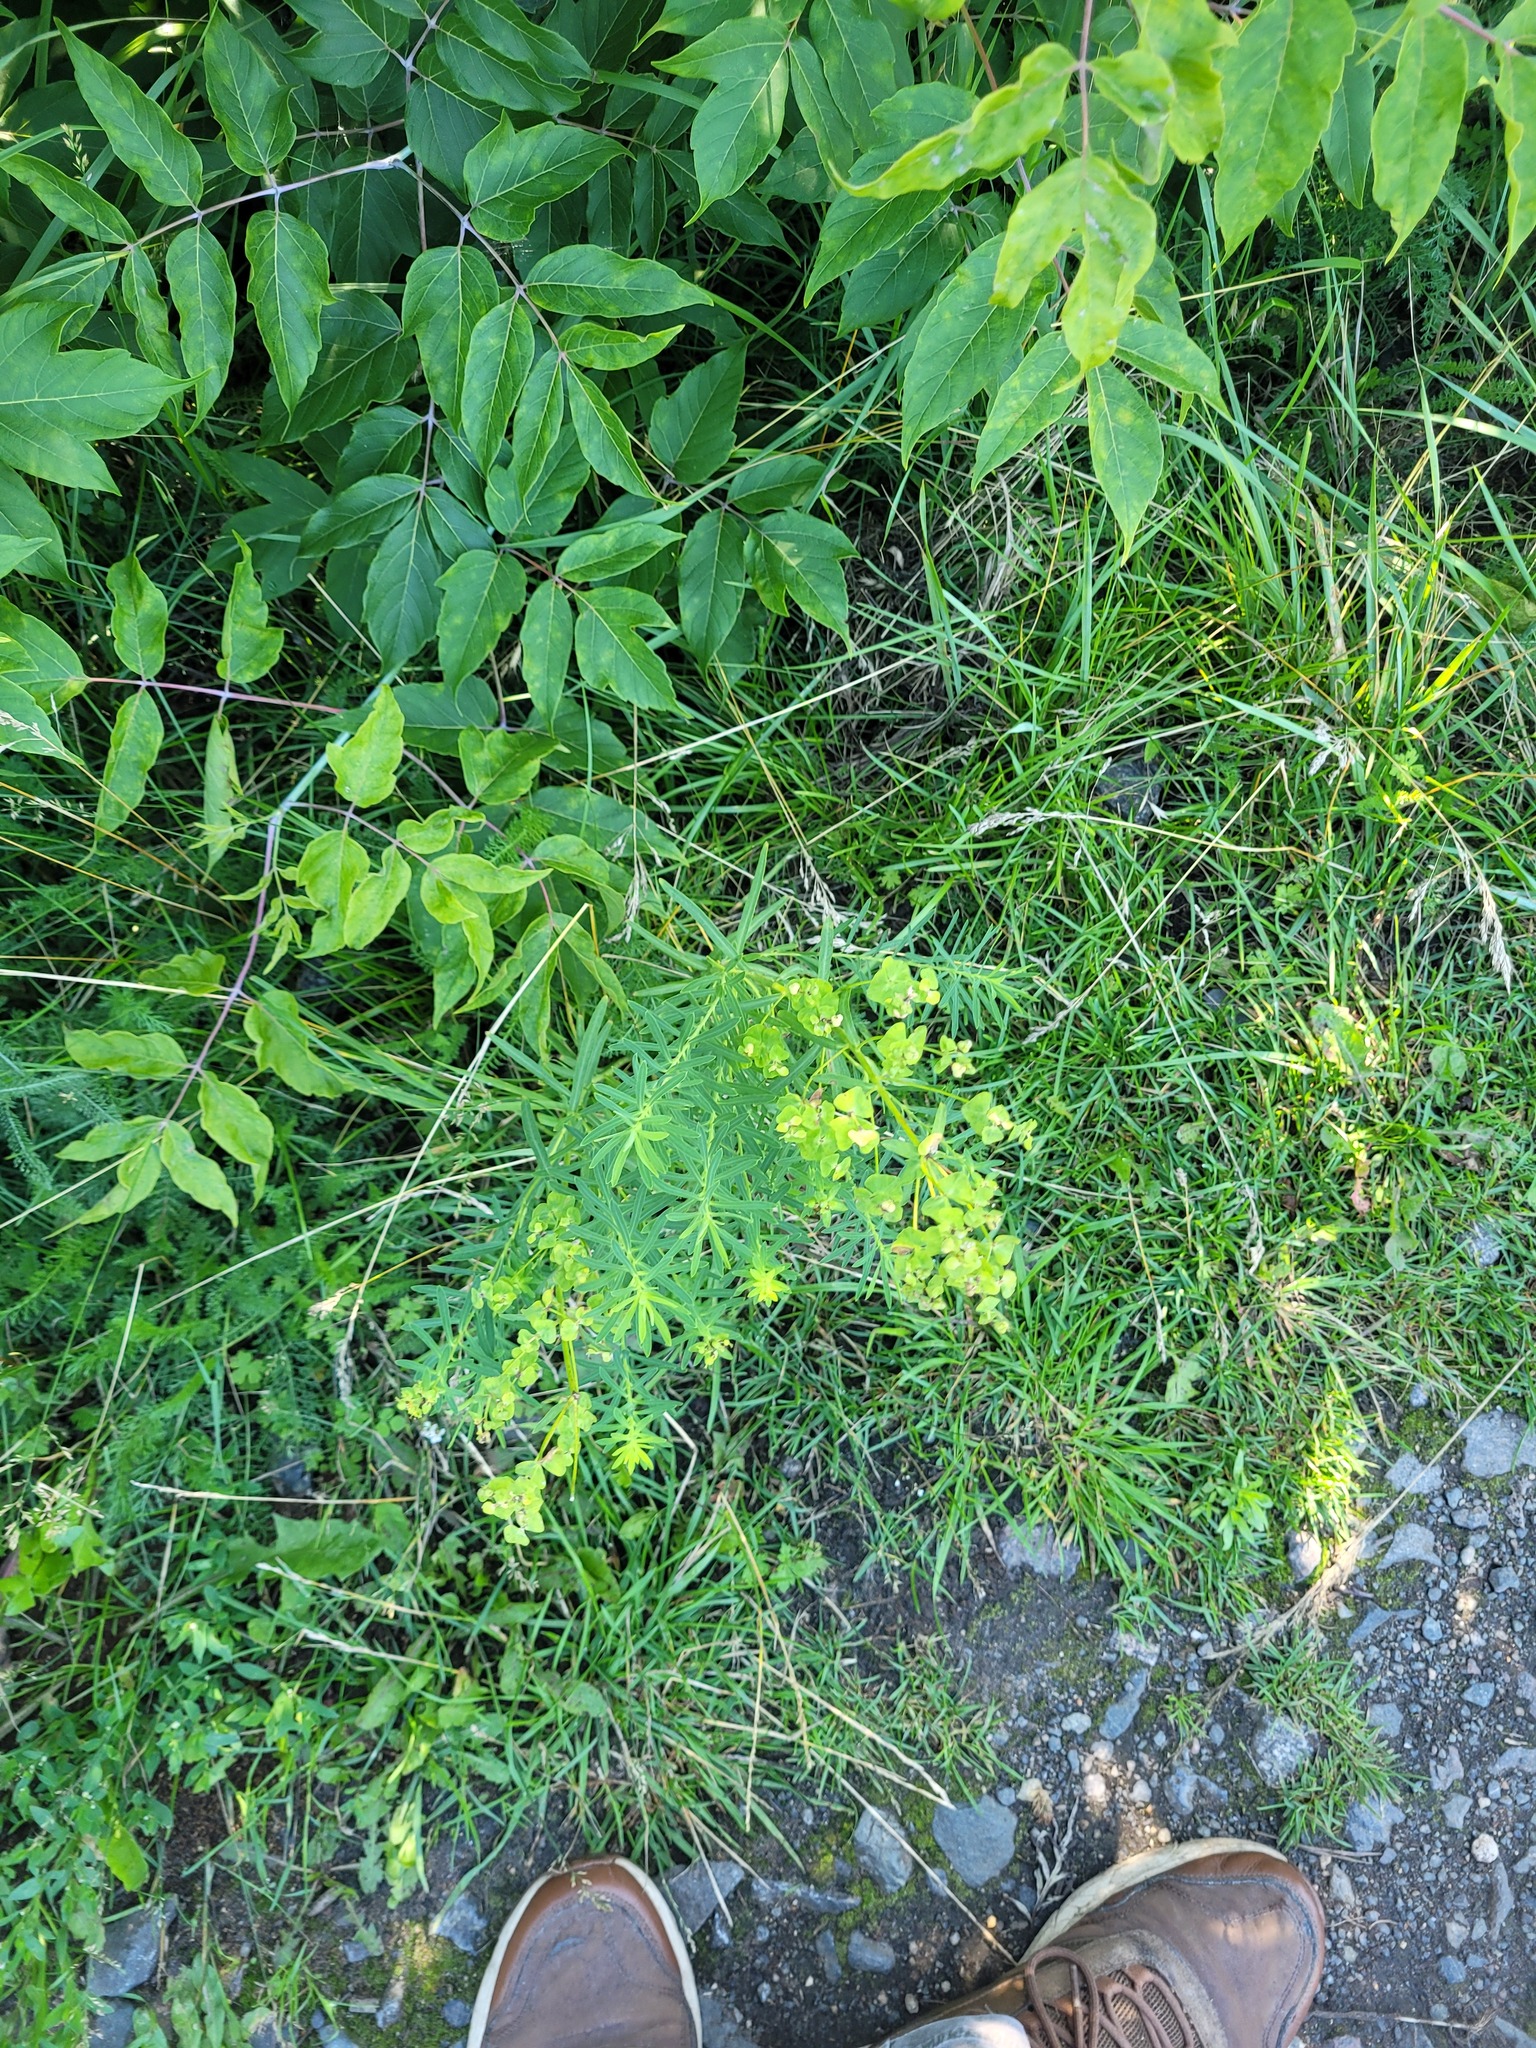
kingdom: Plantae
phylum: Tracheophyta
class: Magnoliopsida
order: Malpighiales
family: Euphorbiaceae
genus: Euphorbia
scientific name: Euphorbia virgata
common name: Leafy spurge
